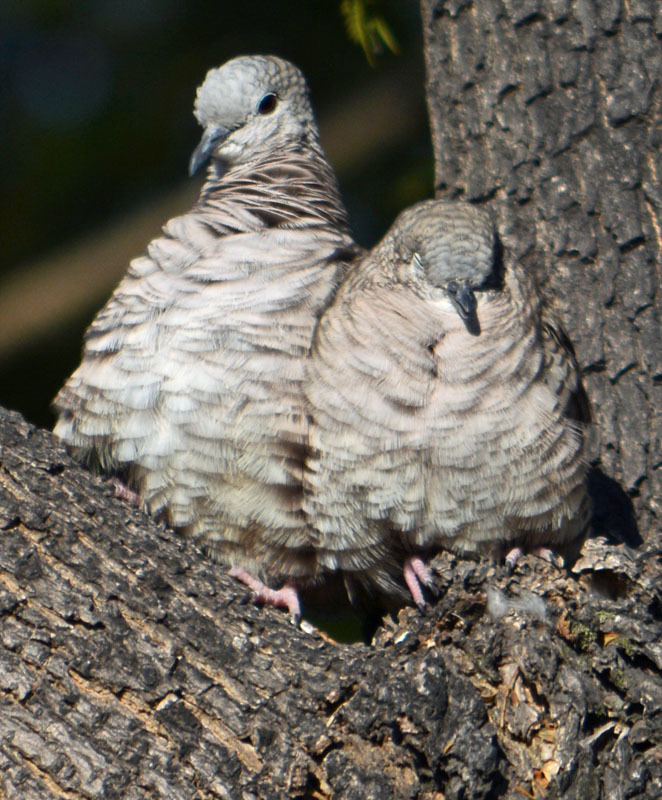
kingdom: Animalia
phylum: Chordata
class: Aves
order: Columbiformes
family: Columbidae
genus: Columbina
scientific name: Columbina inca
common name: Inca dove
